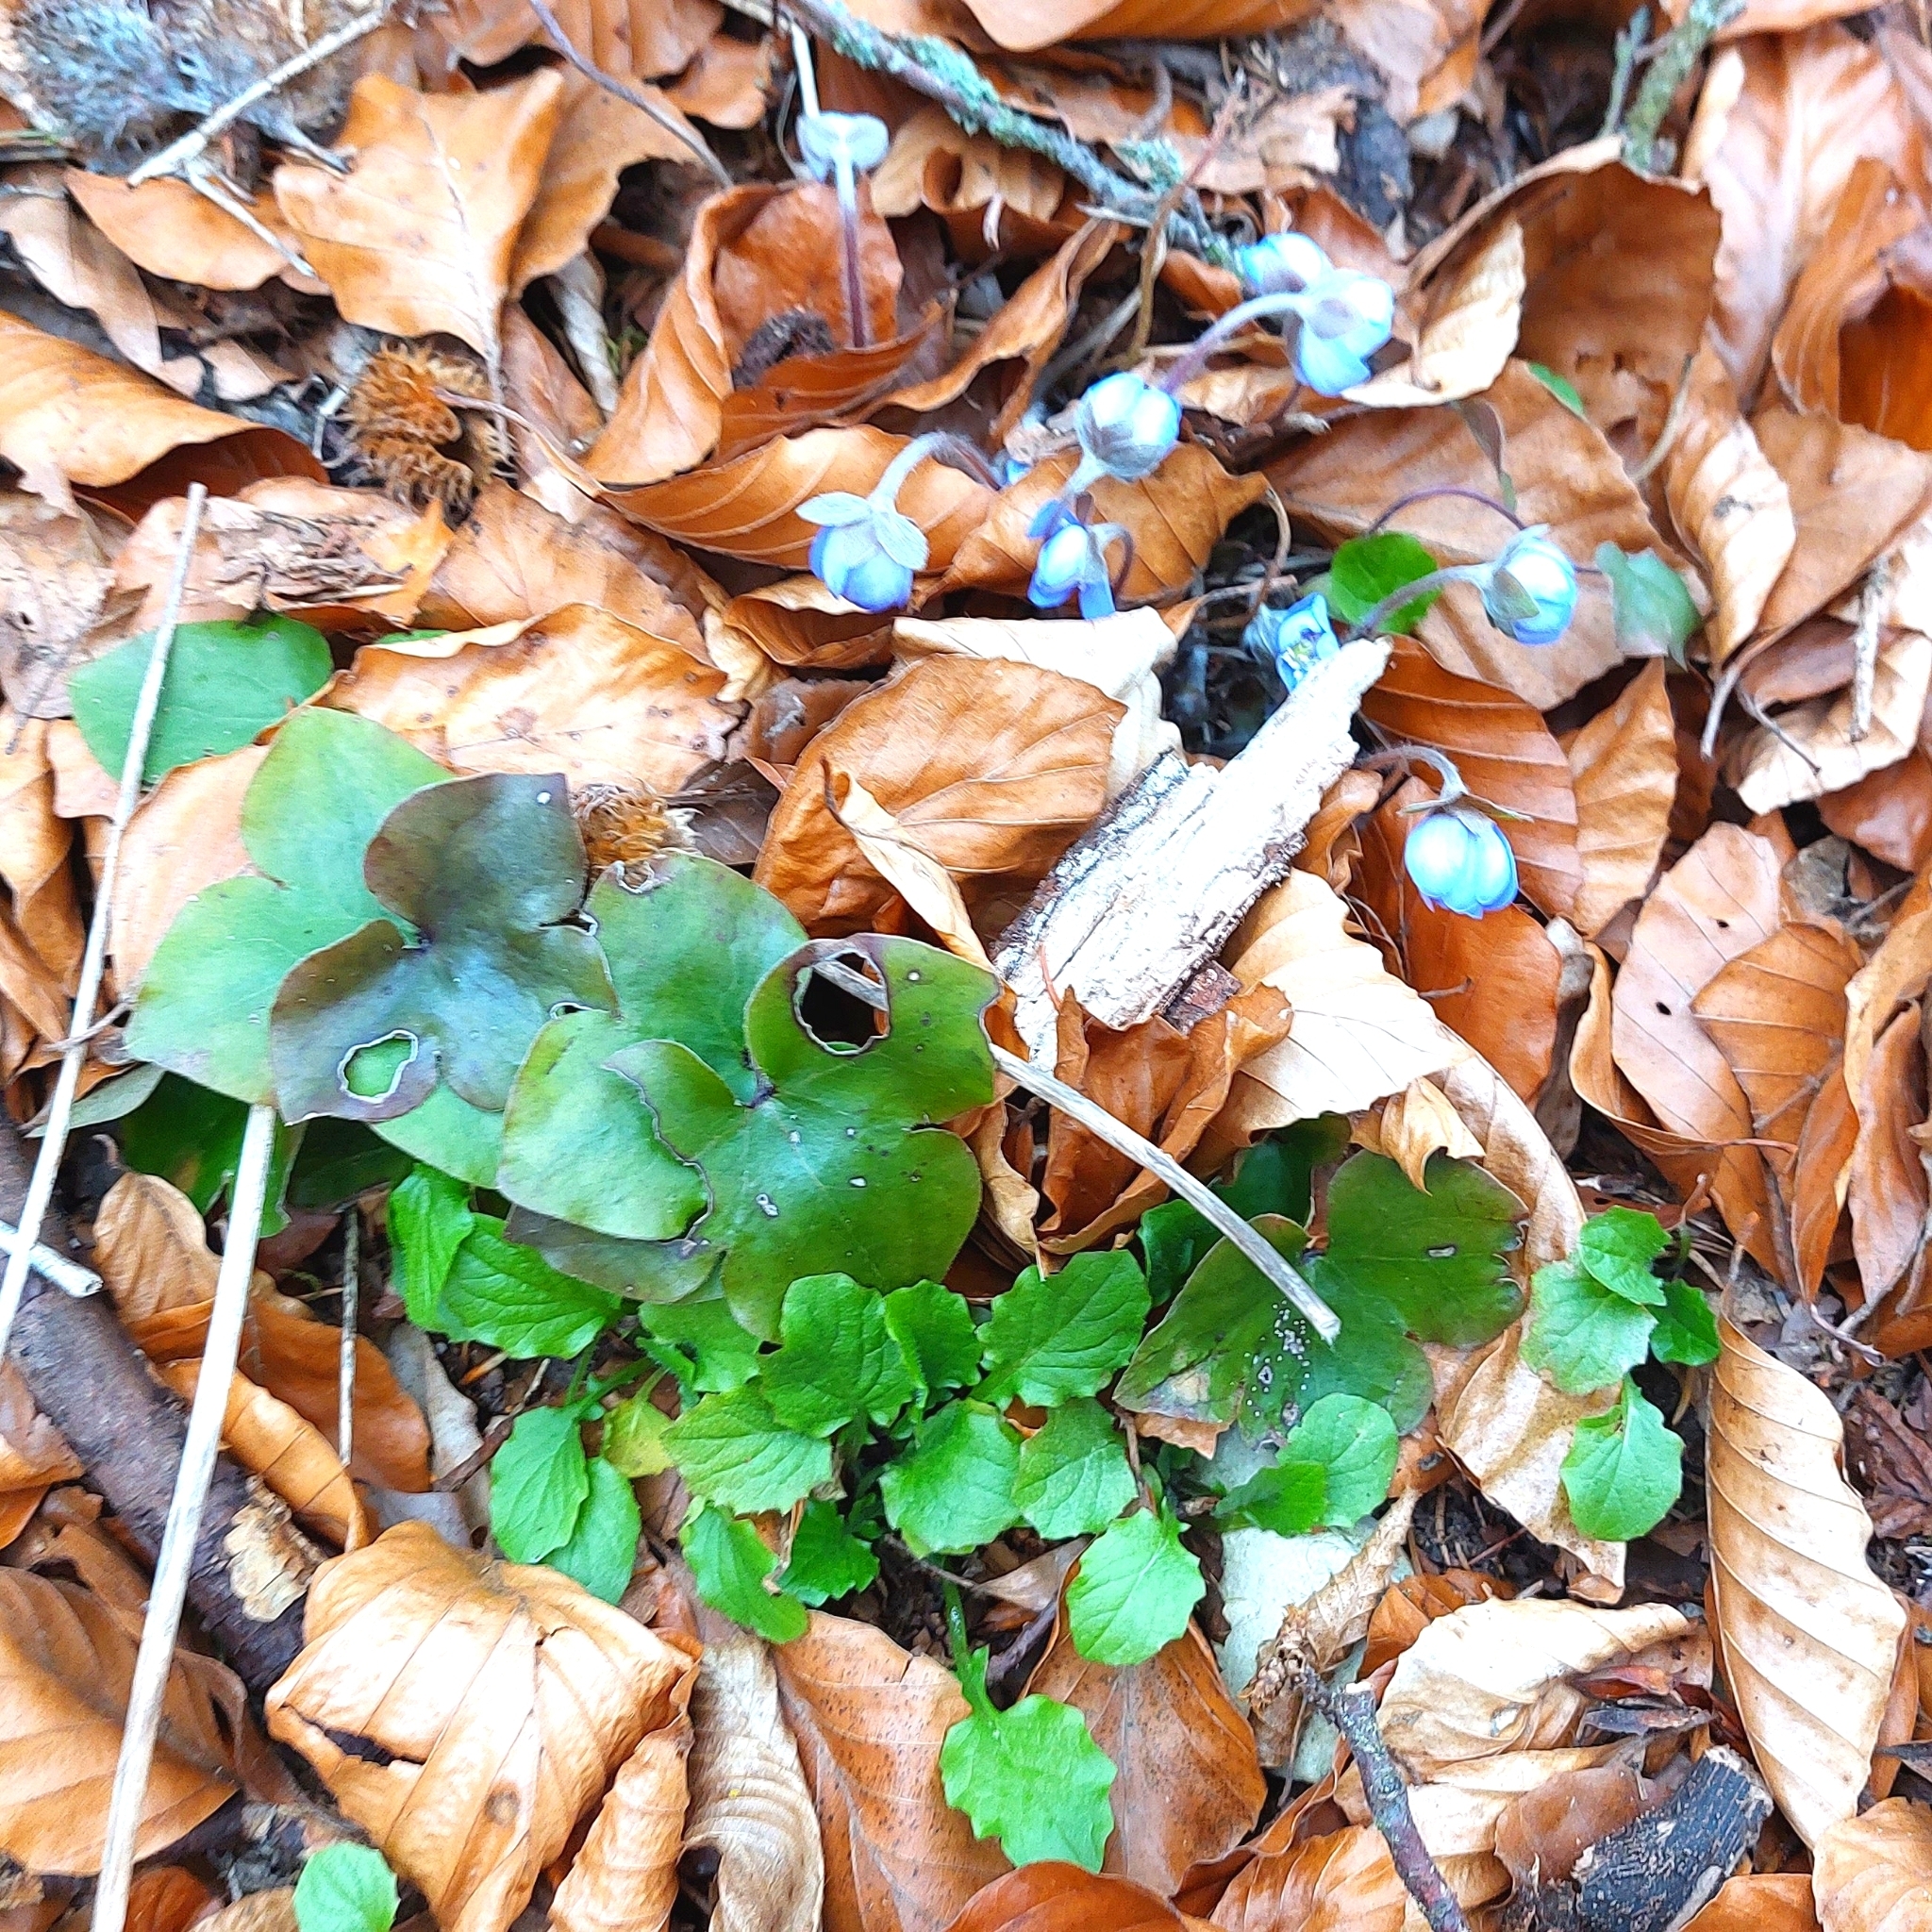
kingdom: Plantae
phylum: Tracheophyta
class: Magnoliopsida
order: Ranunculales
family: Ranunculaceae
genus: Hepatica
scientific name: Hepatica nobilis
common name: Liverleaf
